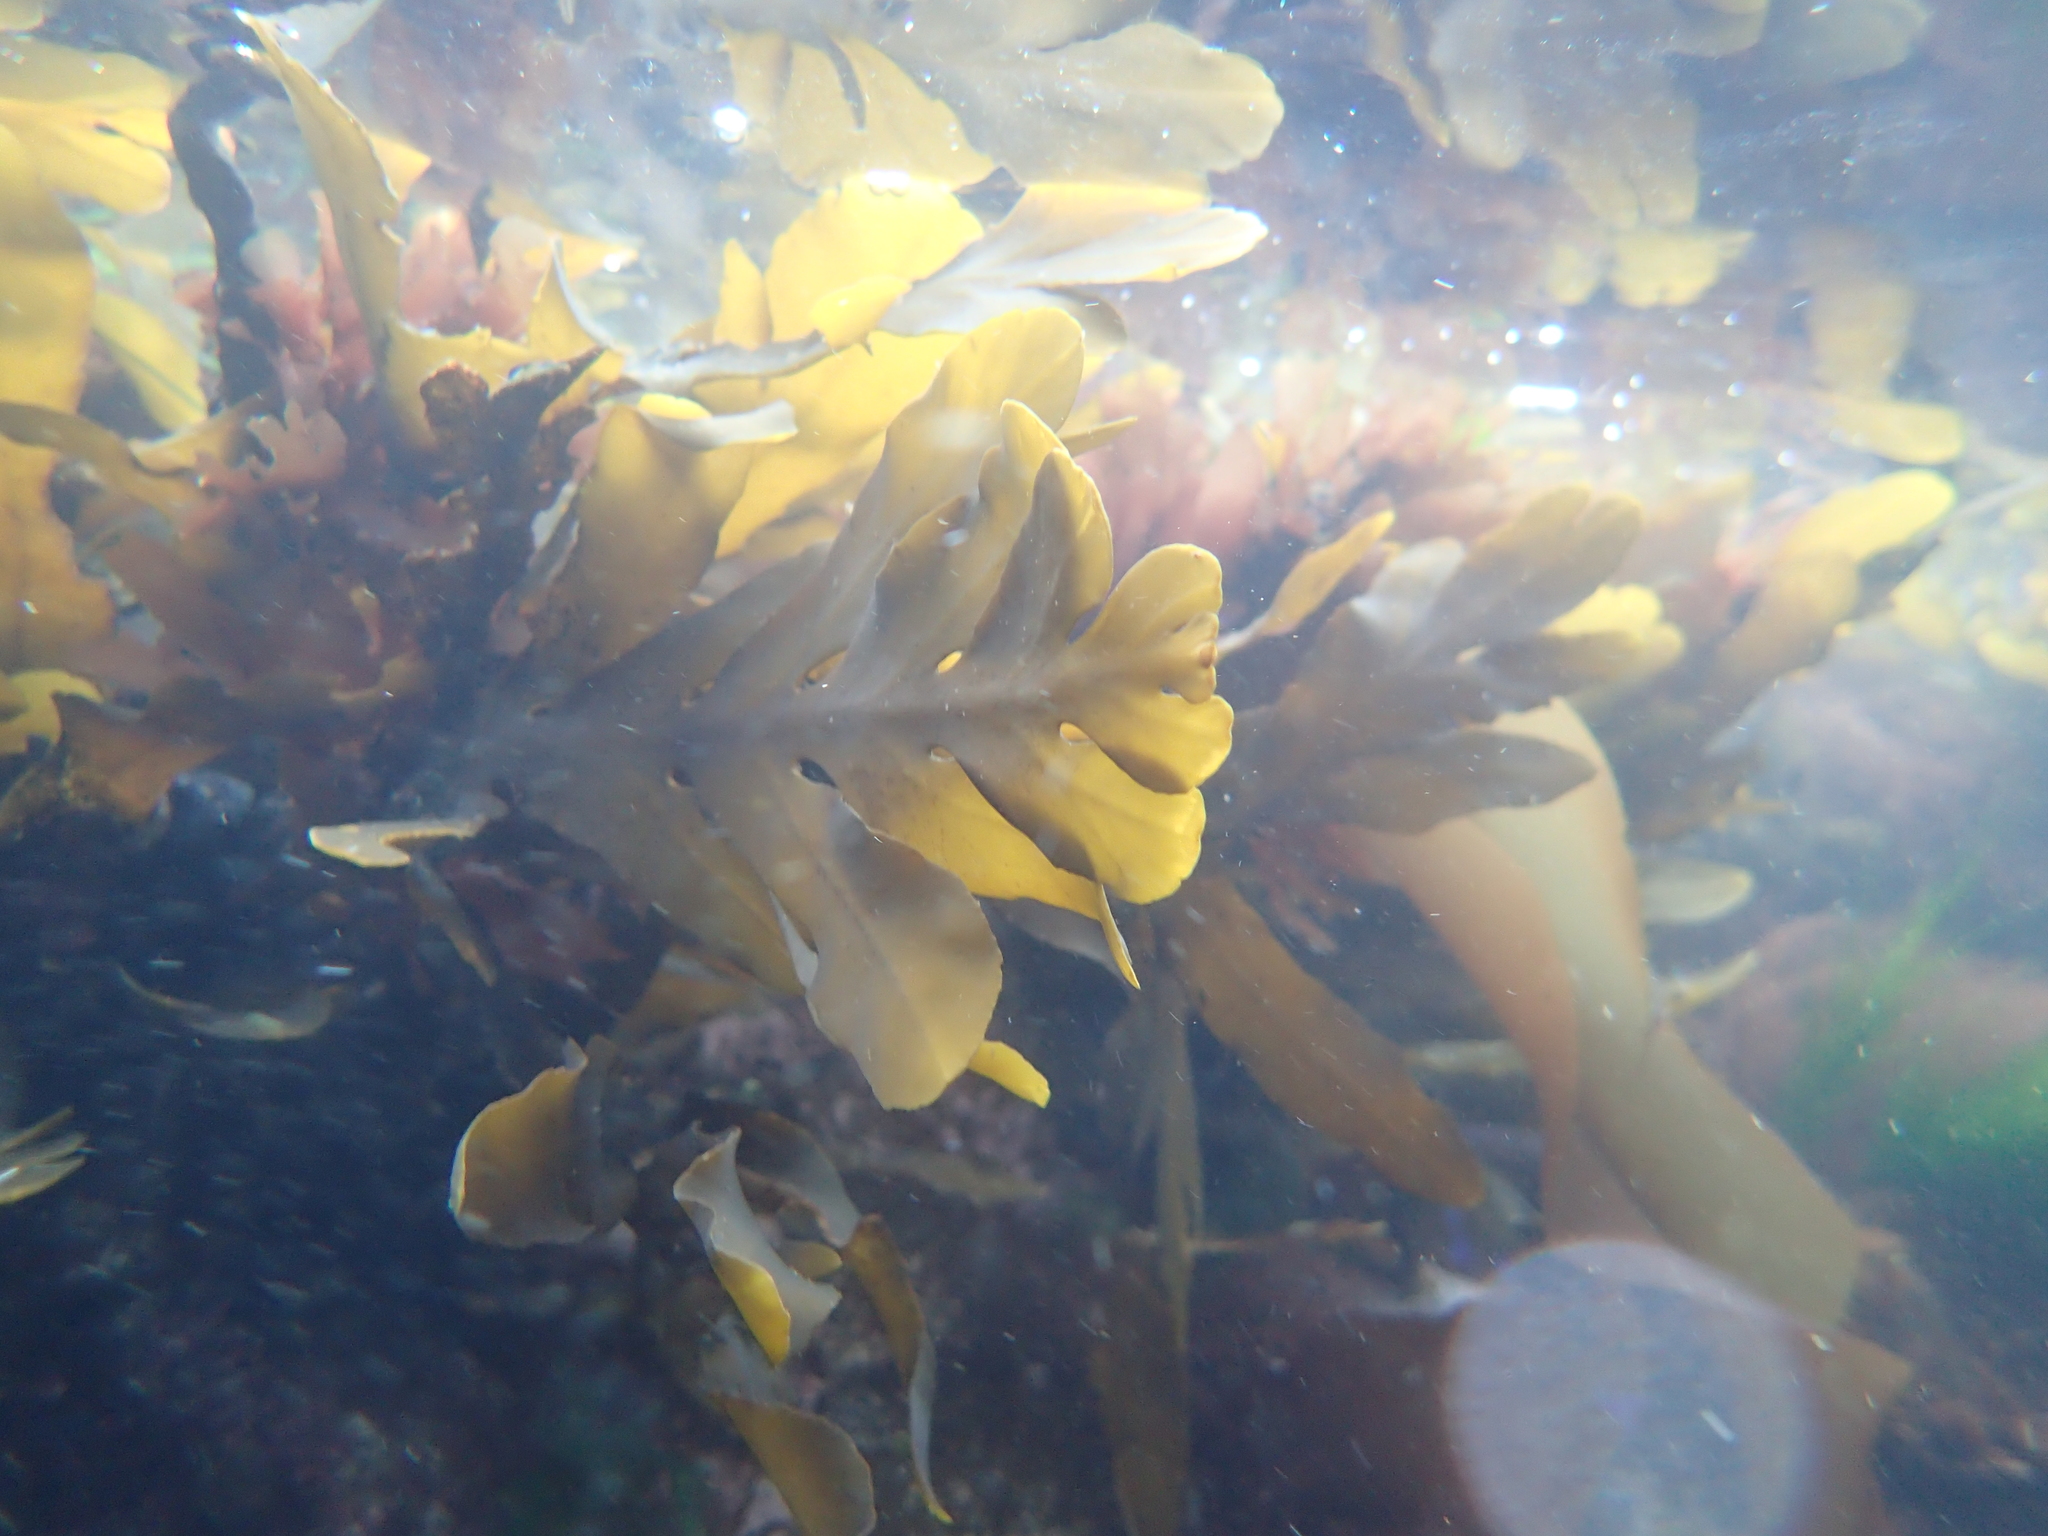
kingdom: Chromista
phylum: Ochrophyta
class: Phaeophyceae
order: Fucales
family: Sargassaceae
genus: Stephanocystis
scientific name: Stephanocystis
